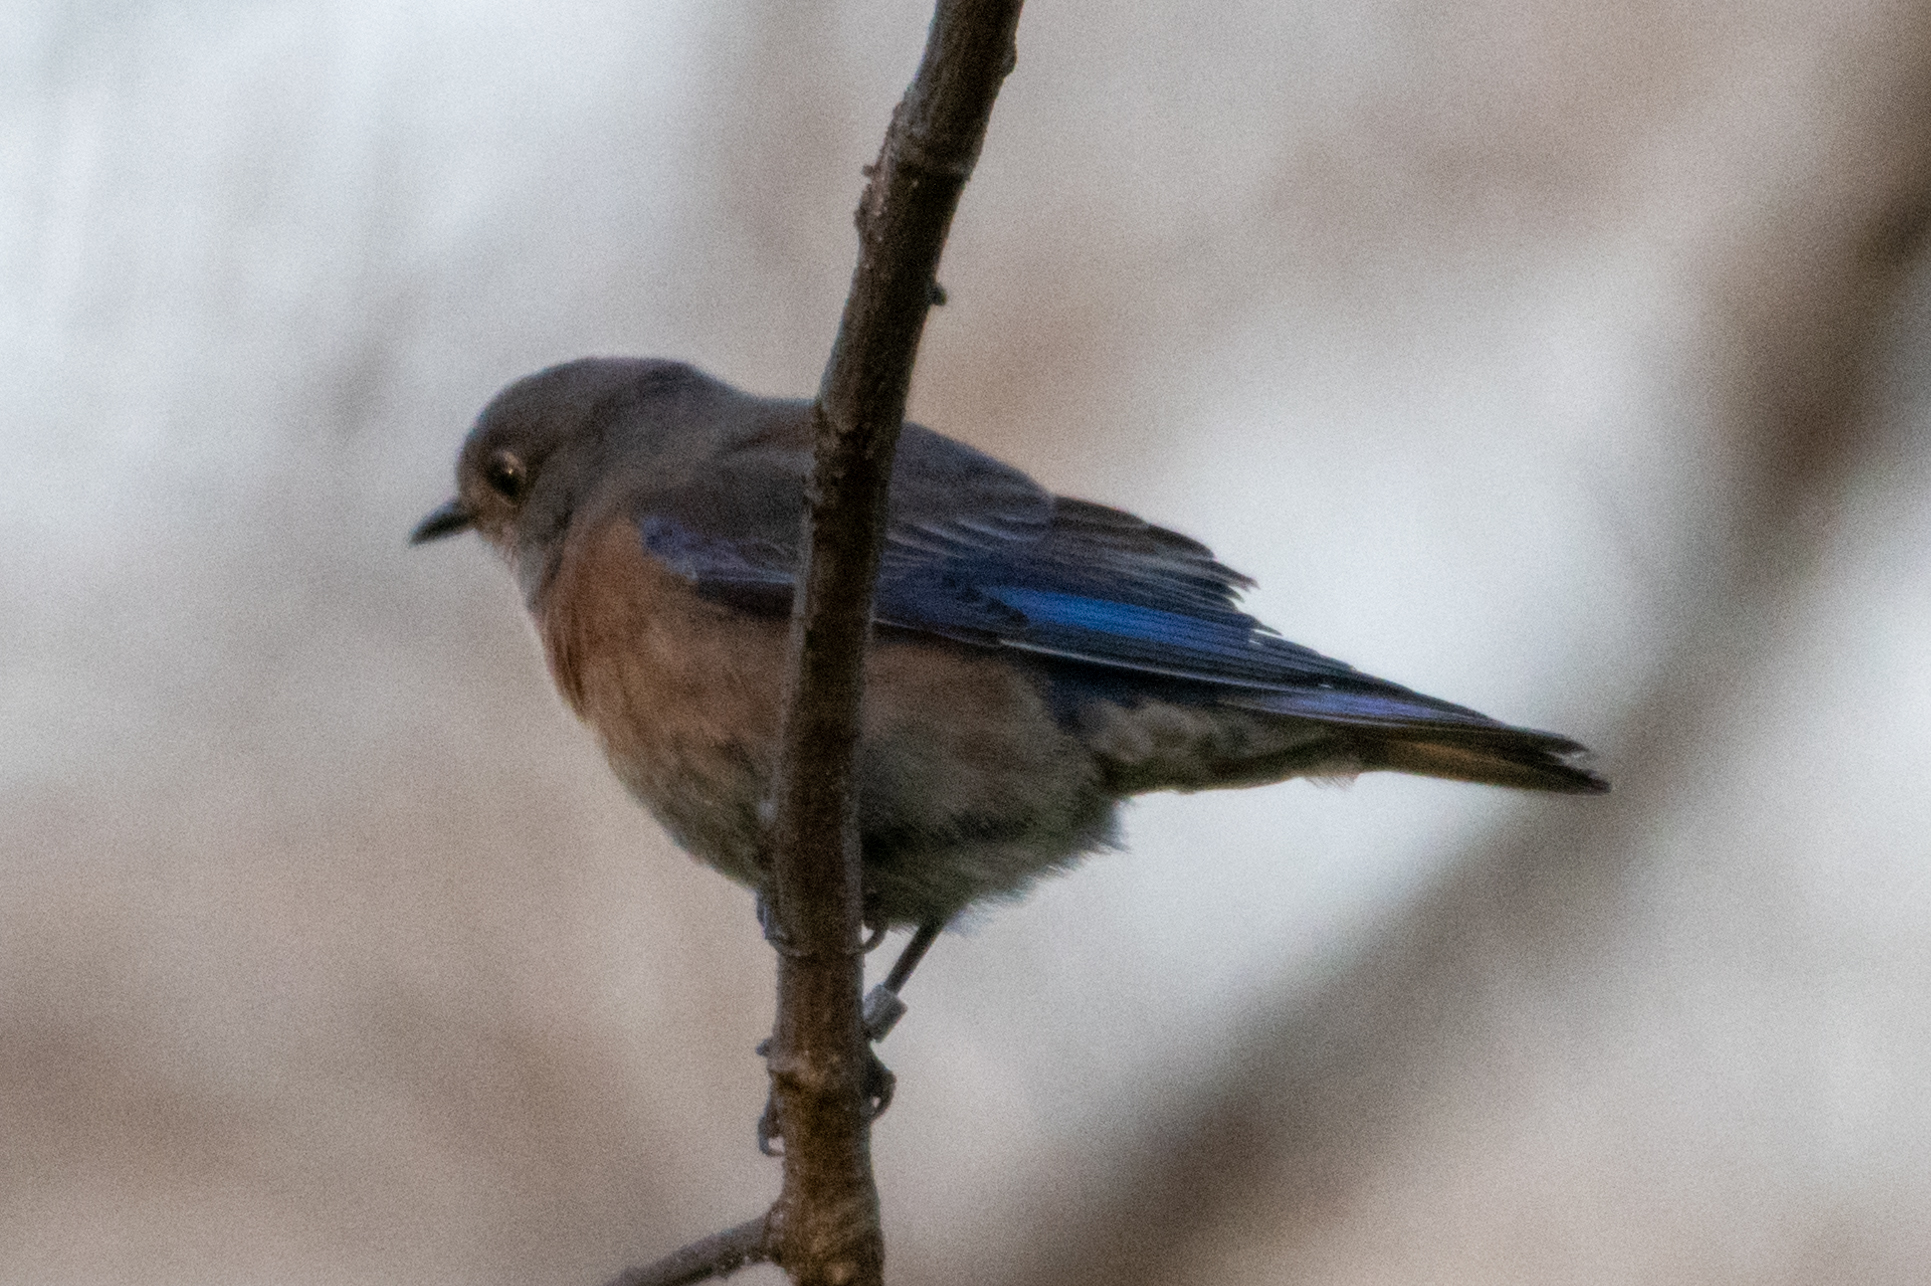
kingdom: Animalia
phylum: Chordata
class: Aves
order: Passeriformes
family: Turdidae
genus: Sialia
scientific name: Sialia mexicana
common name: Western bluebird
